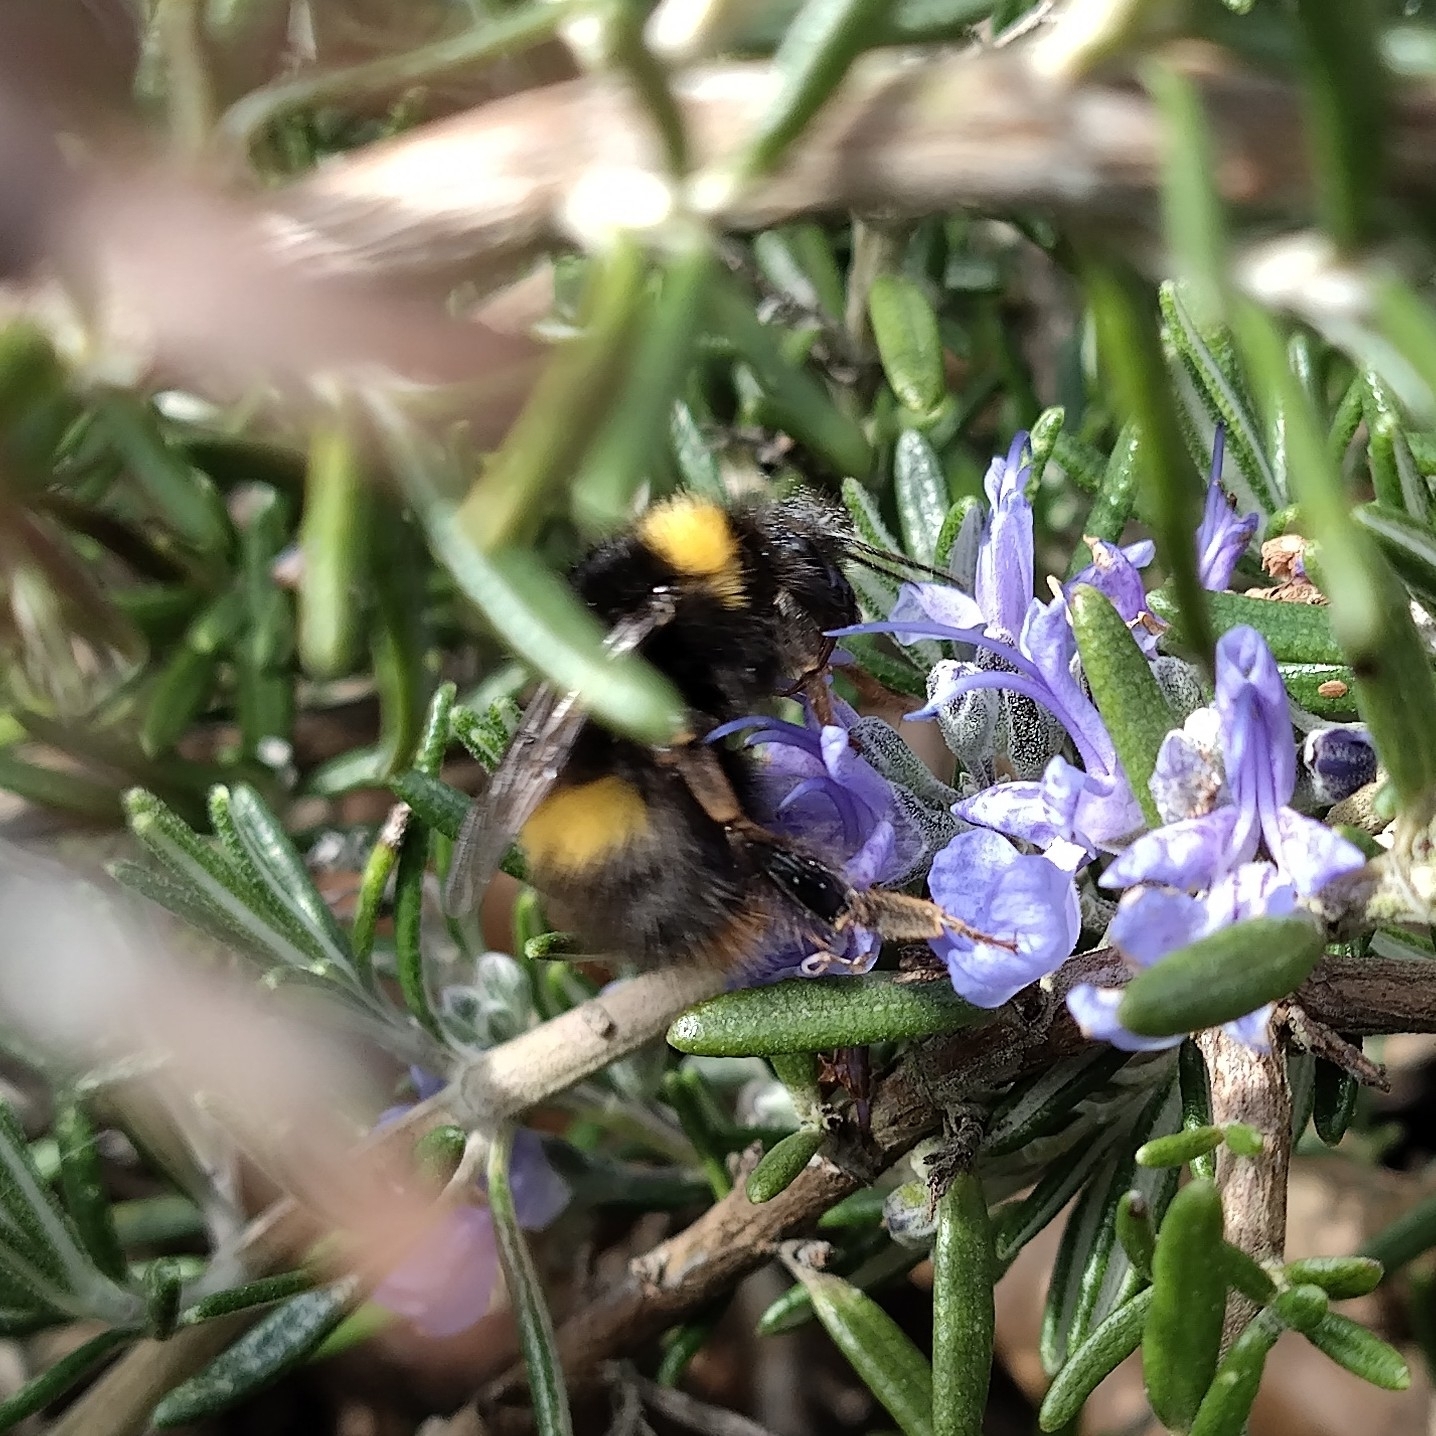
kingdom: Animalia
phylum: Arthropoda
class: Insecta
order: Hymenoptera
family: Apidae
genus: Bombus
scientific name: Bombus pratorum
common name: Early humble-bee
